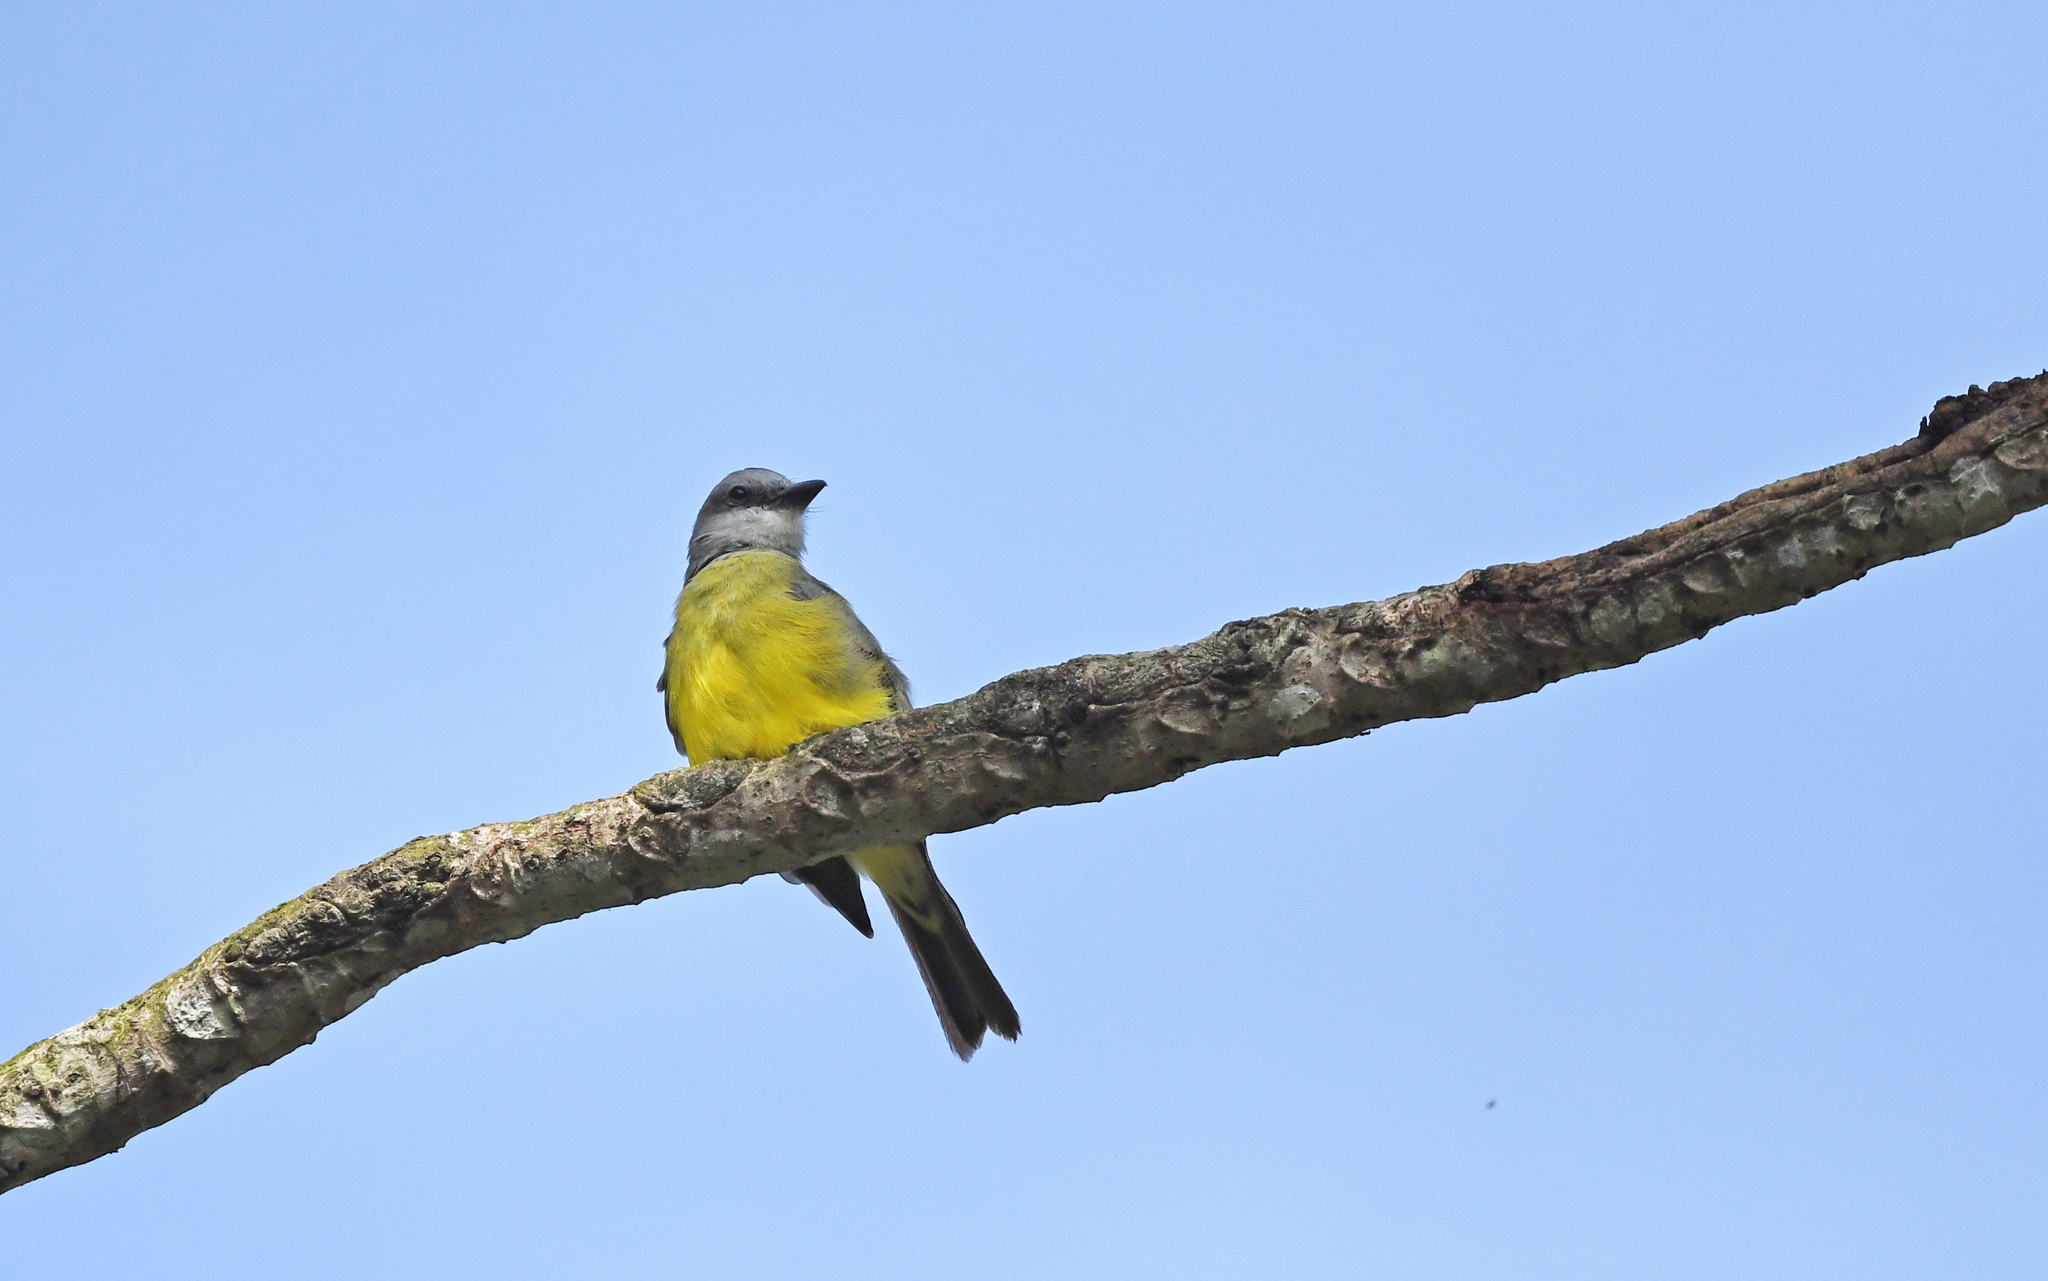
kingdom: Animalia
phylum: Chordata
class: Aves
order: Passeriformes
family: Tyrannidae
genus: Tyrannus
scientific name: Tyrannus melancholicus
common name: Tropical kingbird
